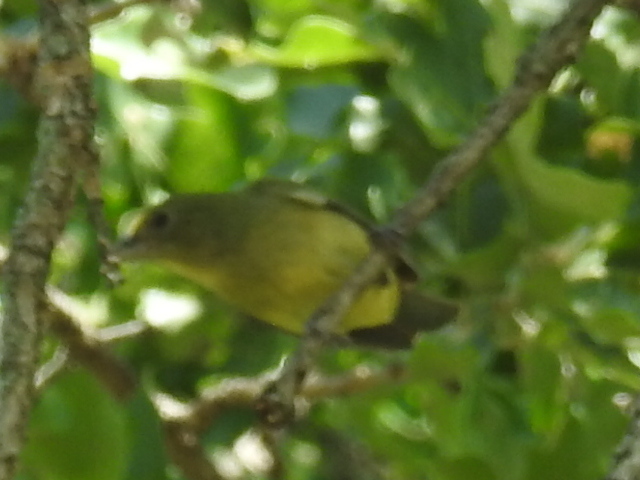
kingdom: Animalia
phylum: Chordata
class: Aves
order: Passeriformes
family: Cardinalidae
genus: Passerina
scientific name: Passerina ciris
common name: Painted bunting
